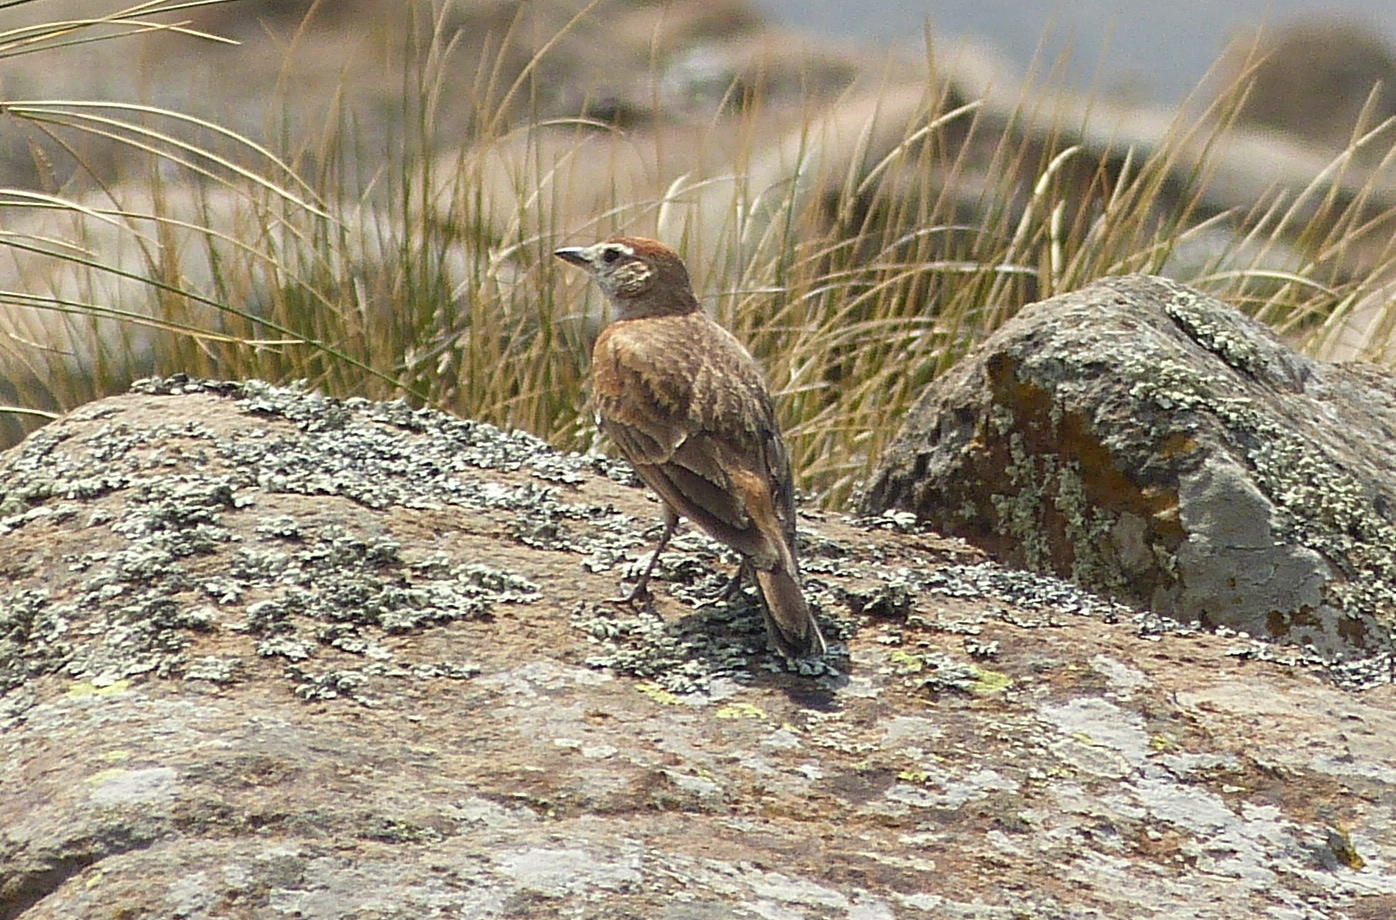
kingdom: Animalia
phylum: Chordata
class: Aves
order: Passeriformes
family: Alaudidae
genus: Calandrella
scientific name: Calandrella cinerea
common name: Red-capped lark
